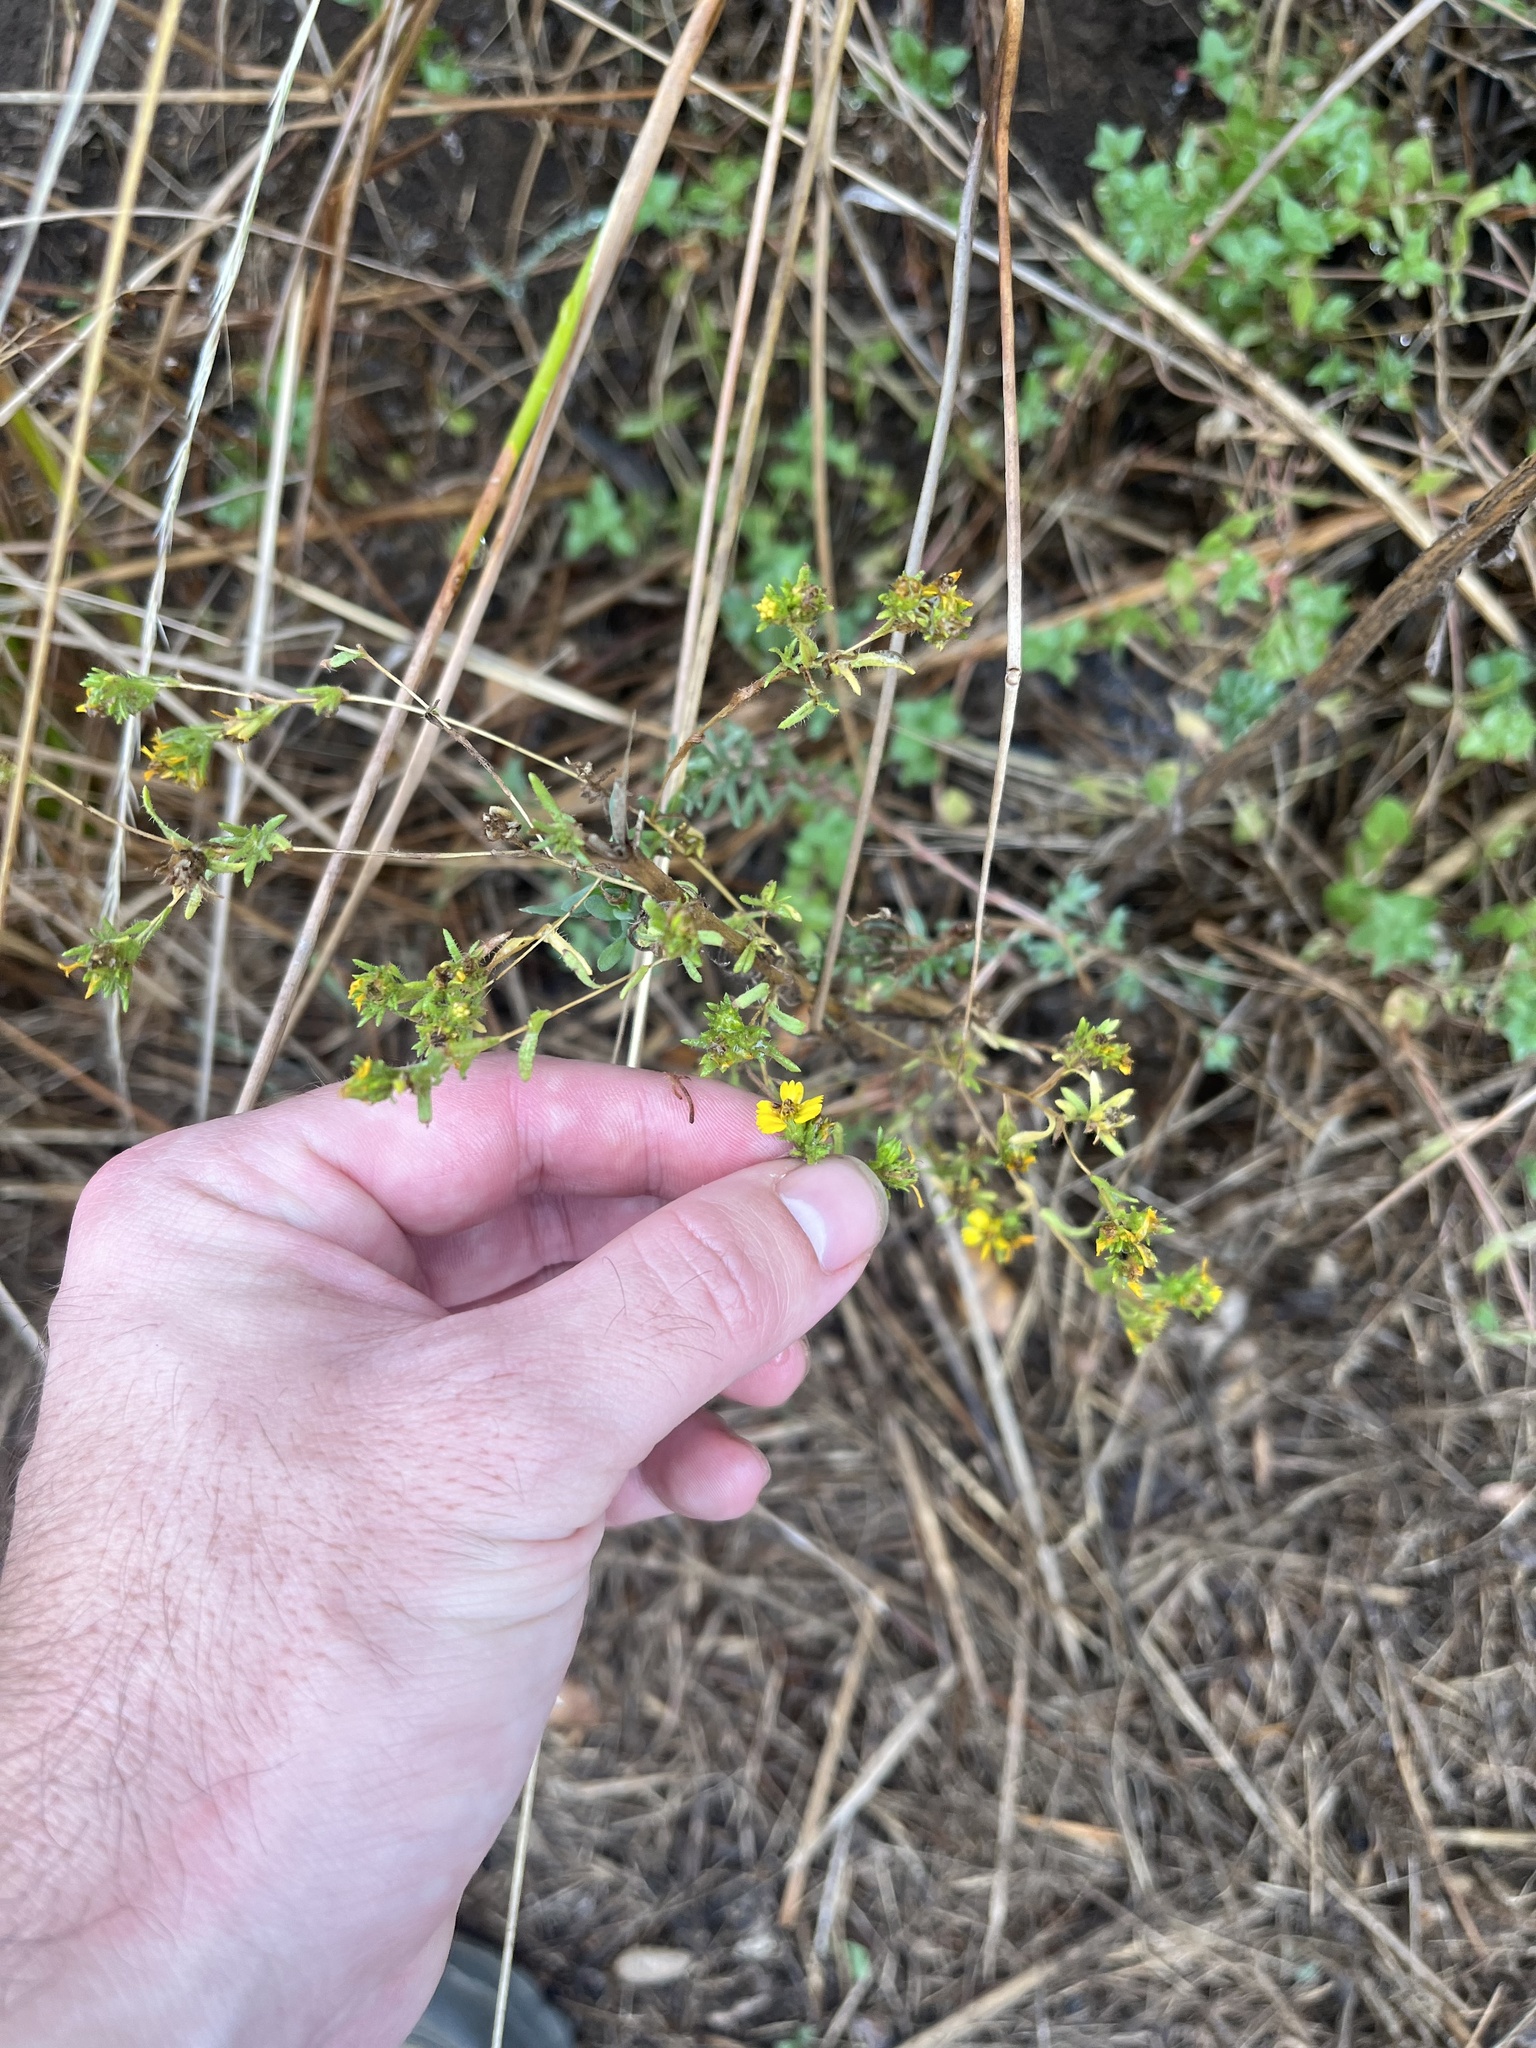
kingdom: Plantae
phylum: Tracheophyta
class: Magnoliopsida
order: Asterales
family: Asteraceae
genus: Deinandra
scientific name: Deinandra fasciculata
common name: Clustered tarweed
